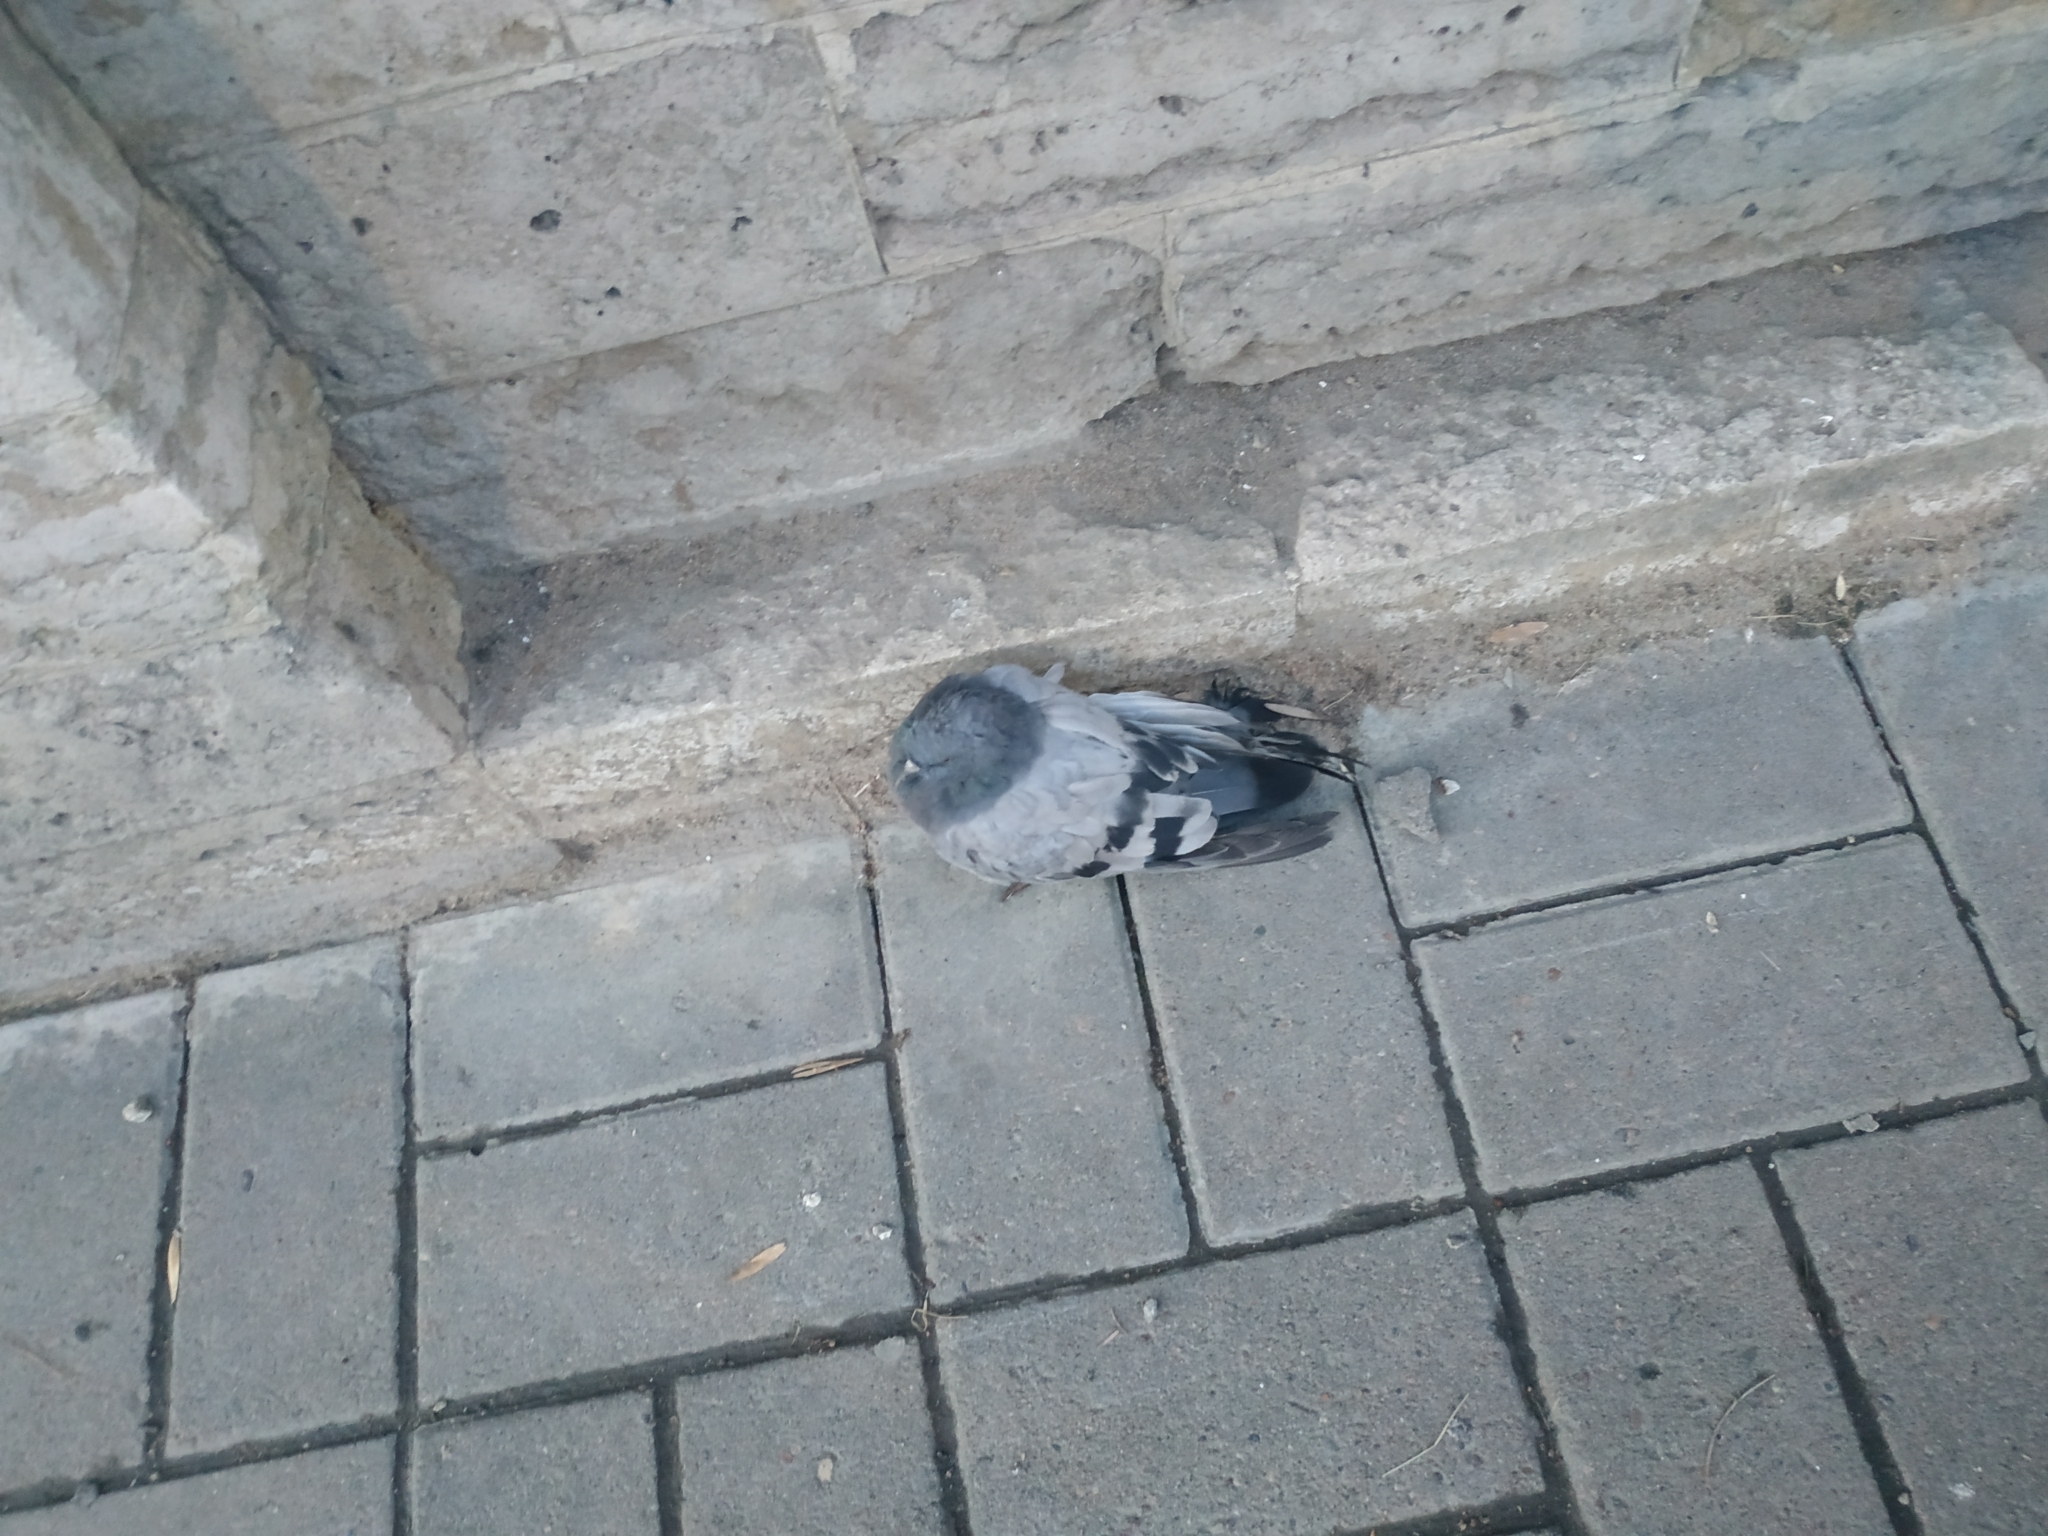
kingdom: Animalia
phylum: Chordata
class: Aves
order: Columbiformes
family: Columbidae
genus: Columba
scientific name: Columba livia
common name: Rock pigeon
